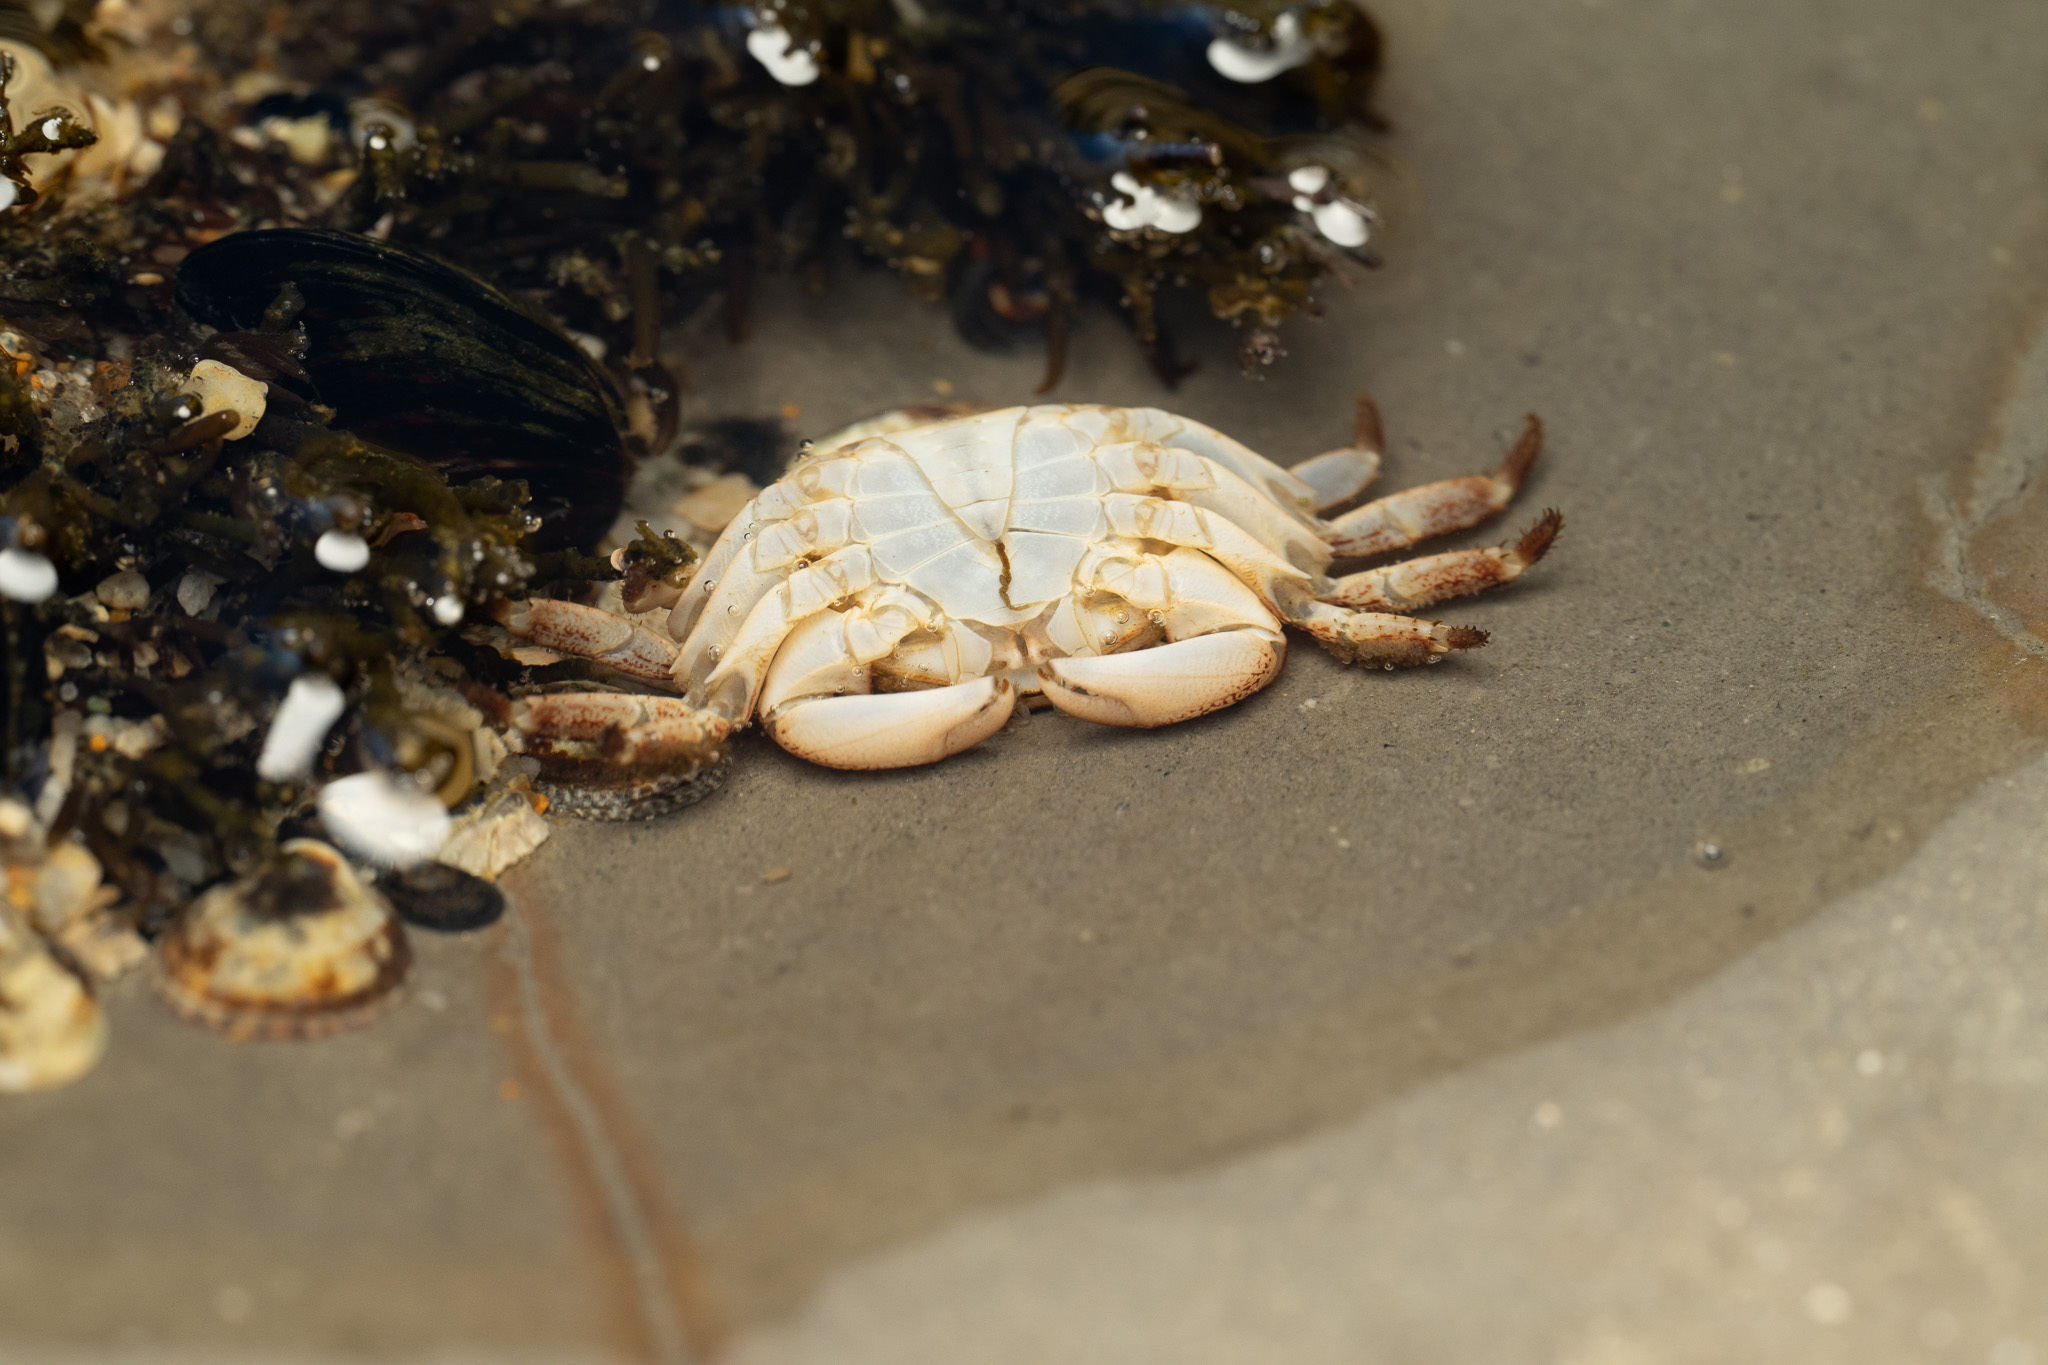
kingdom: Animalia
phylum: Arthropoda
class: Malacostraca
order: Decapoda
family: Grapsidae
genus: Pachygrapsus
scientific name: Pachygrapsus crassipes
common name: Striped shore crab
